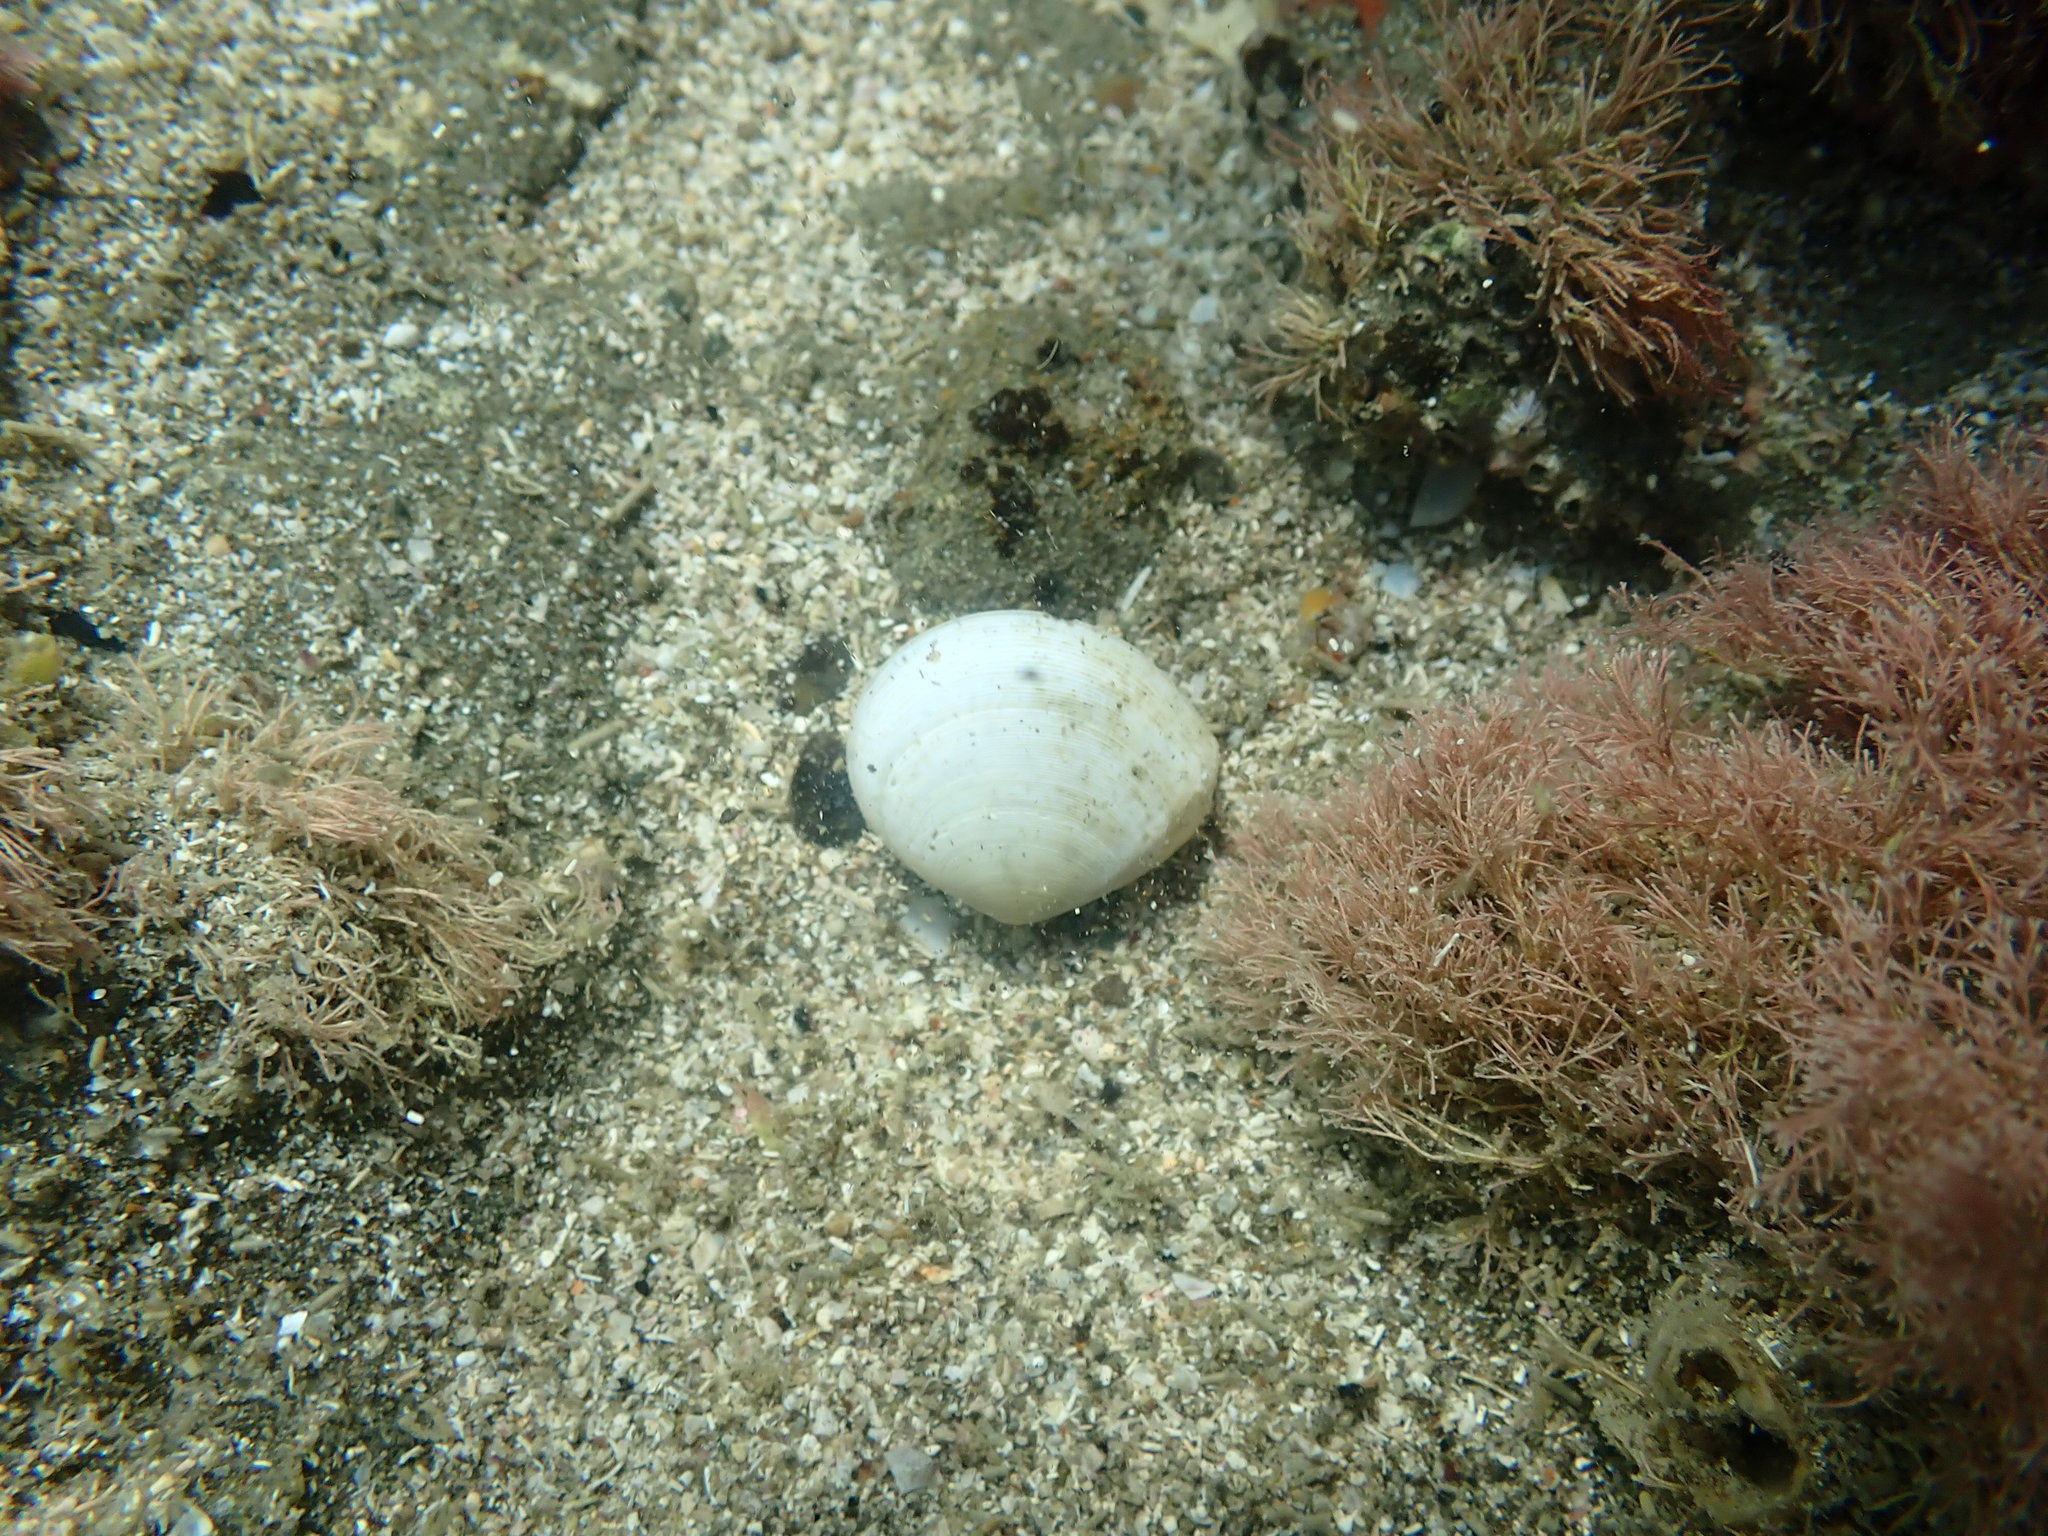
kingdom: Animalia
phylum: Mollusca
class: Bivalvia
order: Cardiida
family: Tellinidae
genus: Pseudarcopagia
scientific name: Pseudarcopagia disculus
